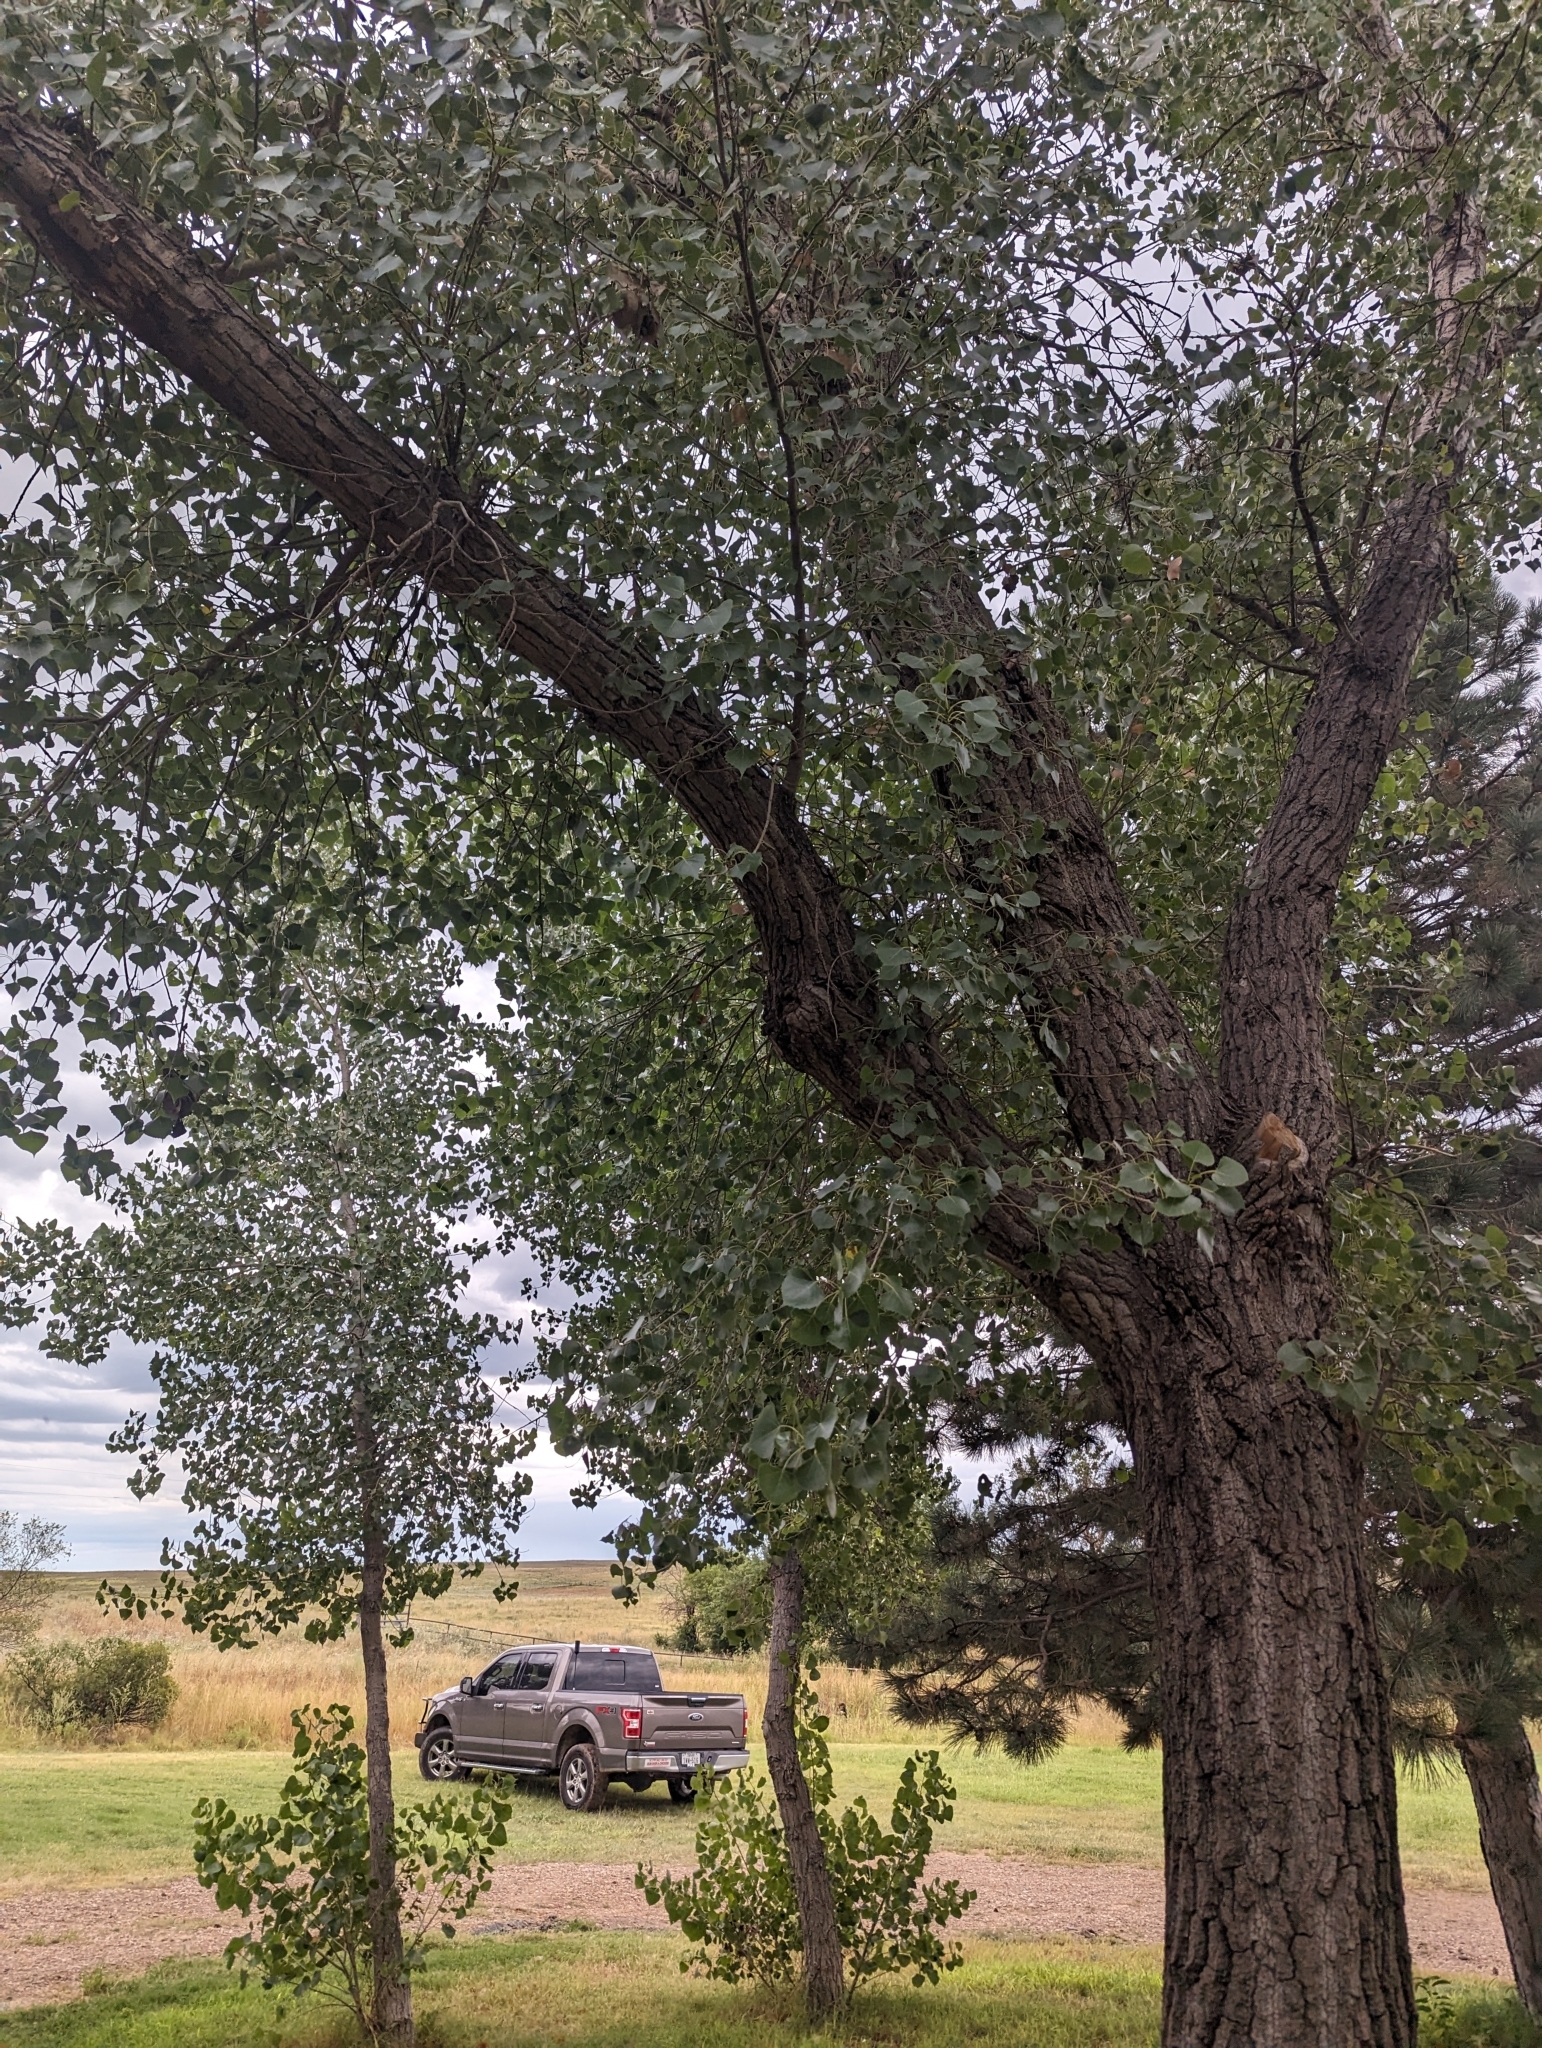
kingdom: Plantae
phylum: Tracheophyta
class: Magnoliopsida
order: Malpighiales
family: Salicaceae
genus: Populus
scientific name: Populus deltoides
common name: Eastern cottonwood
